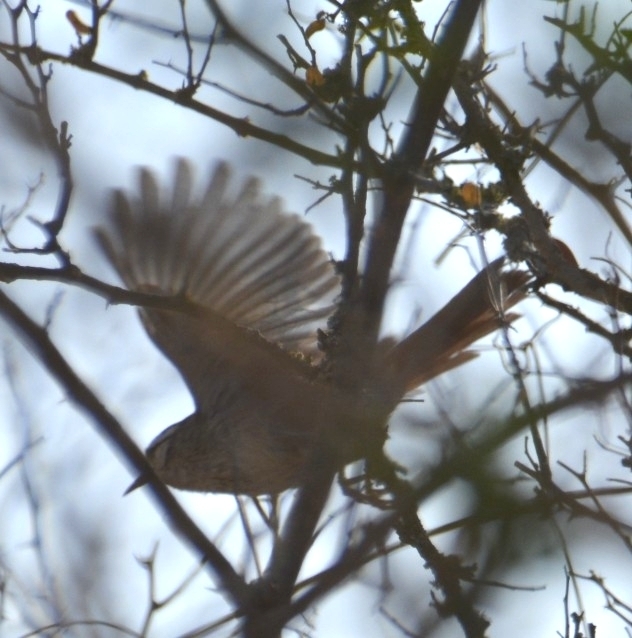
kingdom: Animalia
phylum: Chordata
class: Aves
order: Passeriformes
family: Furnariidae
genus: Cranioleuca
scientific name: Cranioleuca pyrrhophia
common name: Stripe-crowned spinetail
